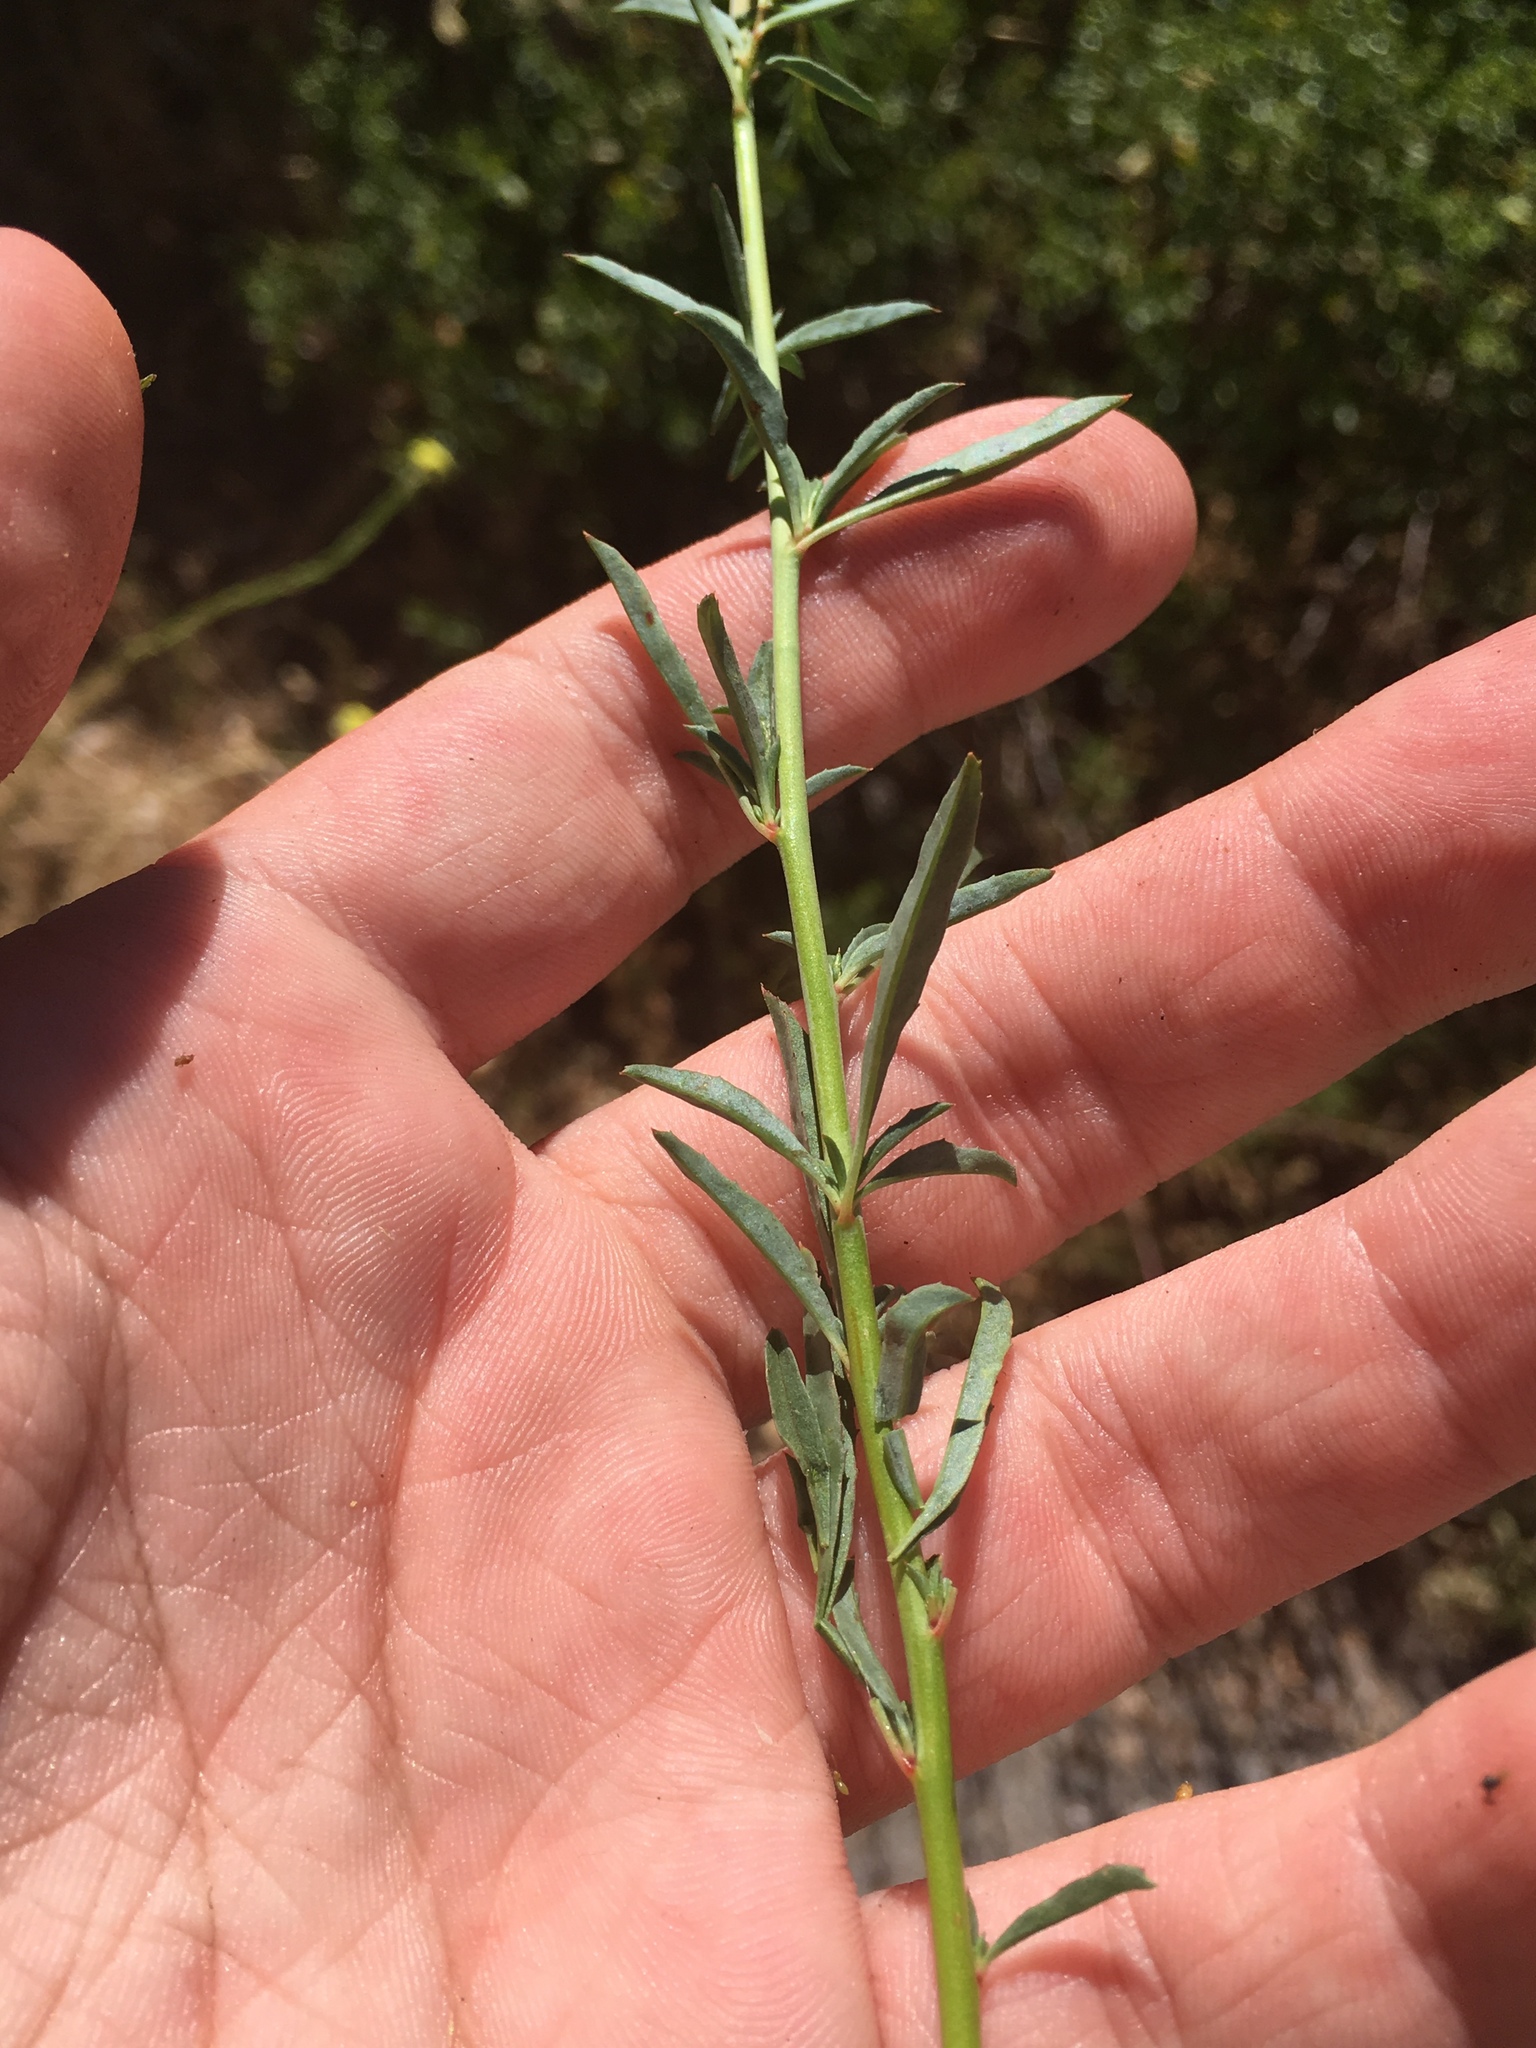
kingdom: Plantae
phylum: Tracheophyta
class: Magnoliopsida
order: Myrtales
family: Onagraceae
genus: Epilobium
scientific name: Epilobium brachycarpum
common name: Annual willowherb
